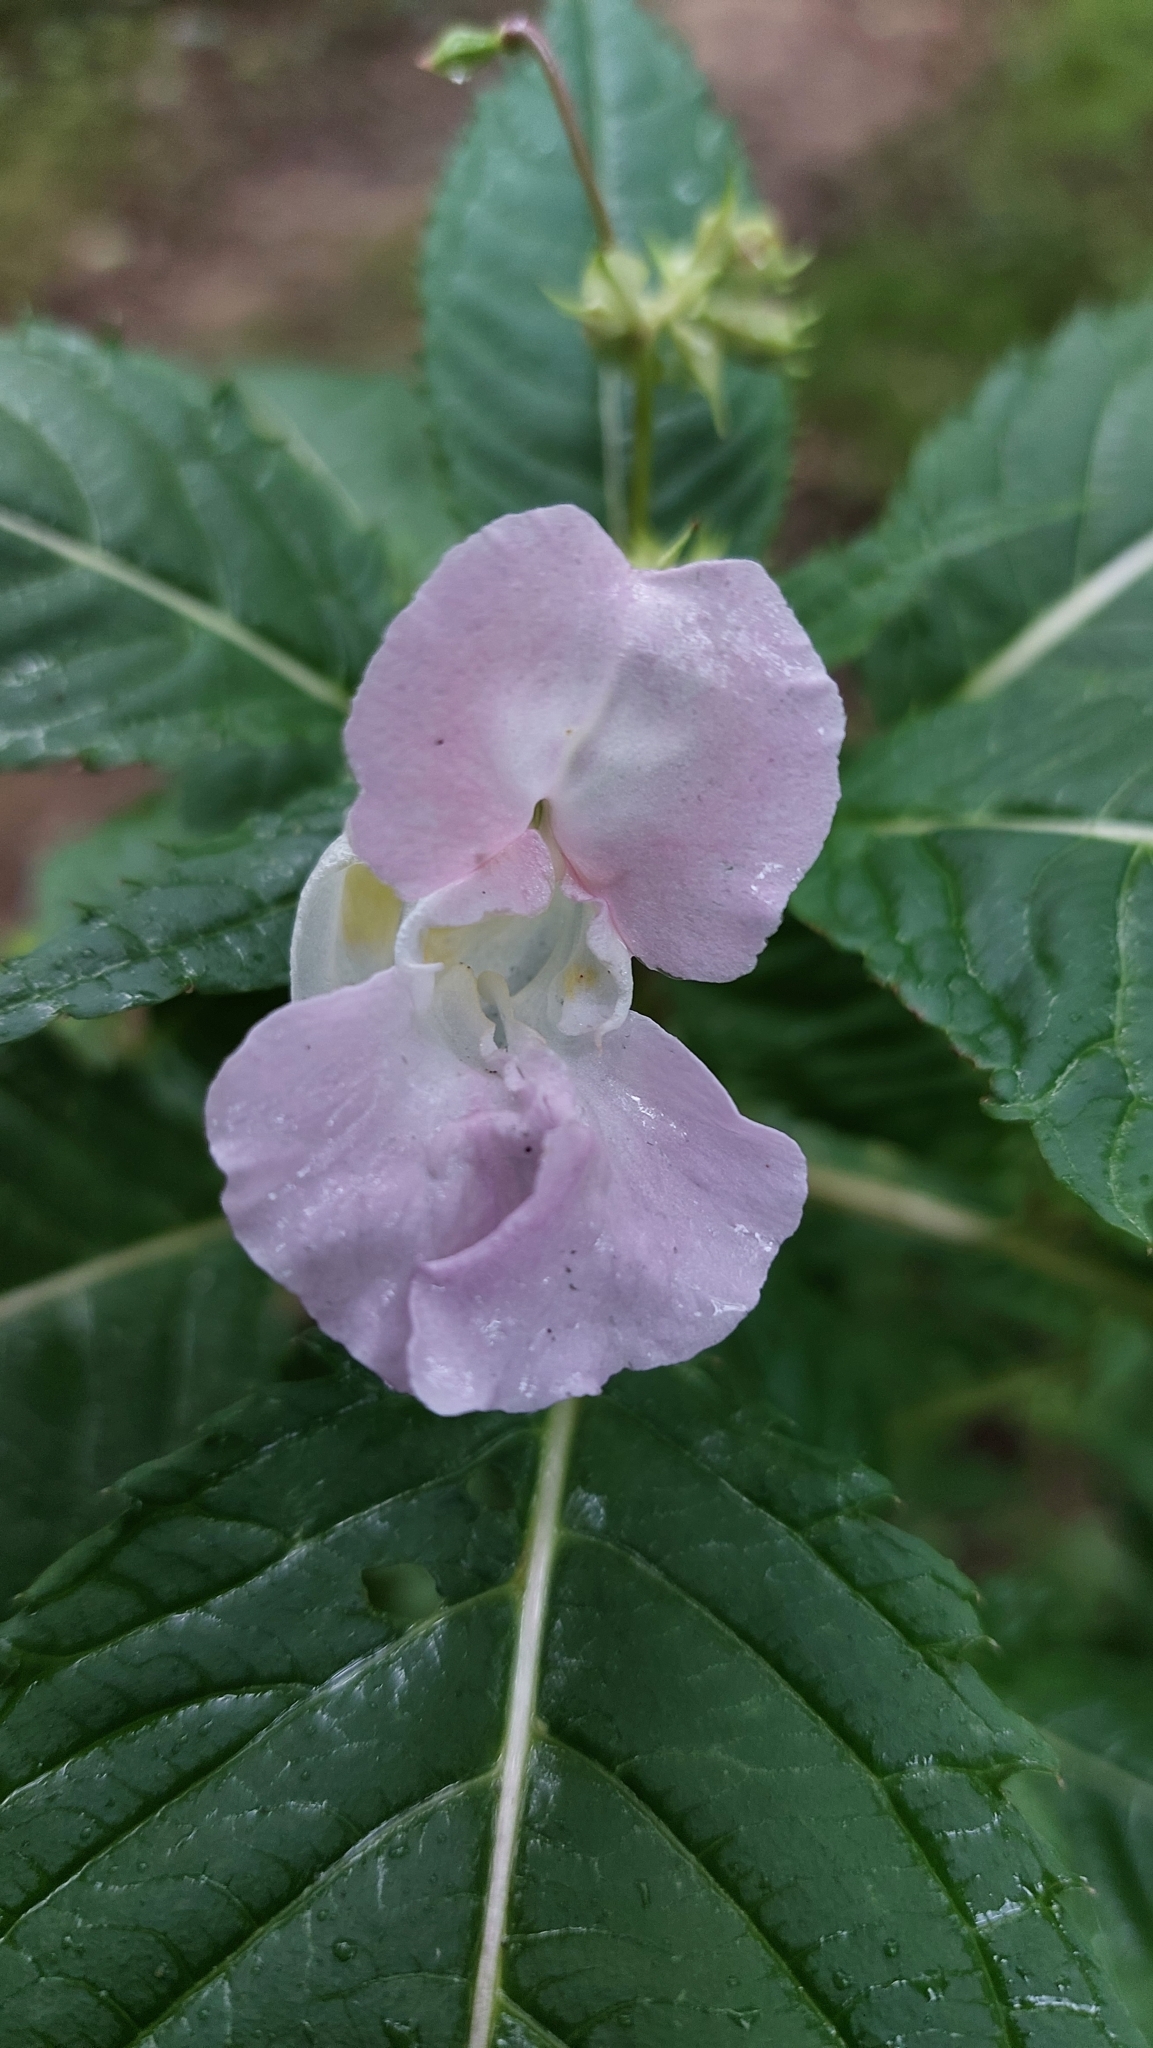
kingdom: Plantae
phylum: Tracheophyta
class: Magnoliopsida
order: Ericales
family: Balsaminaceae
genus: Impatiens
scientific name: Impatiens glandulifera
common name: Himalayan balsam
